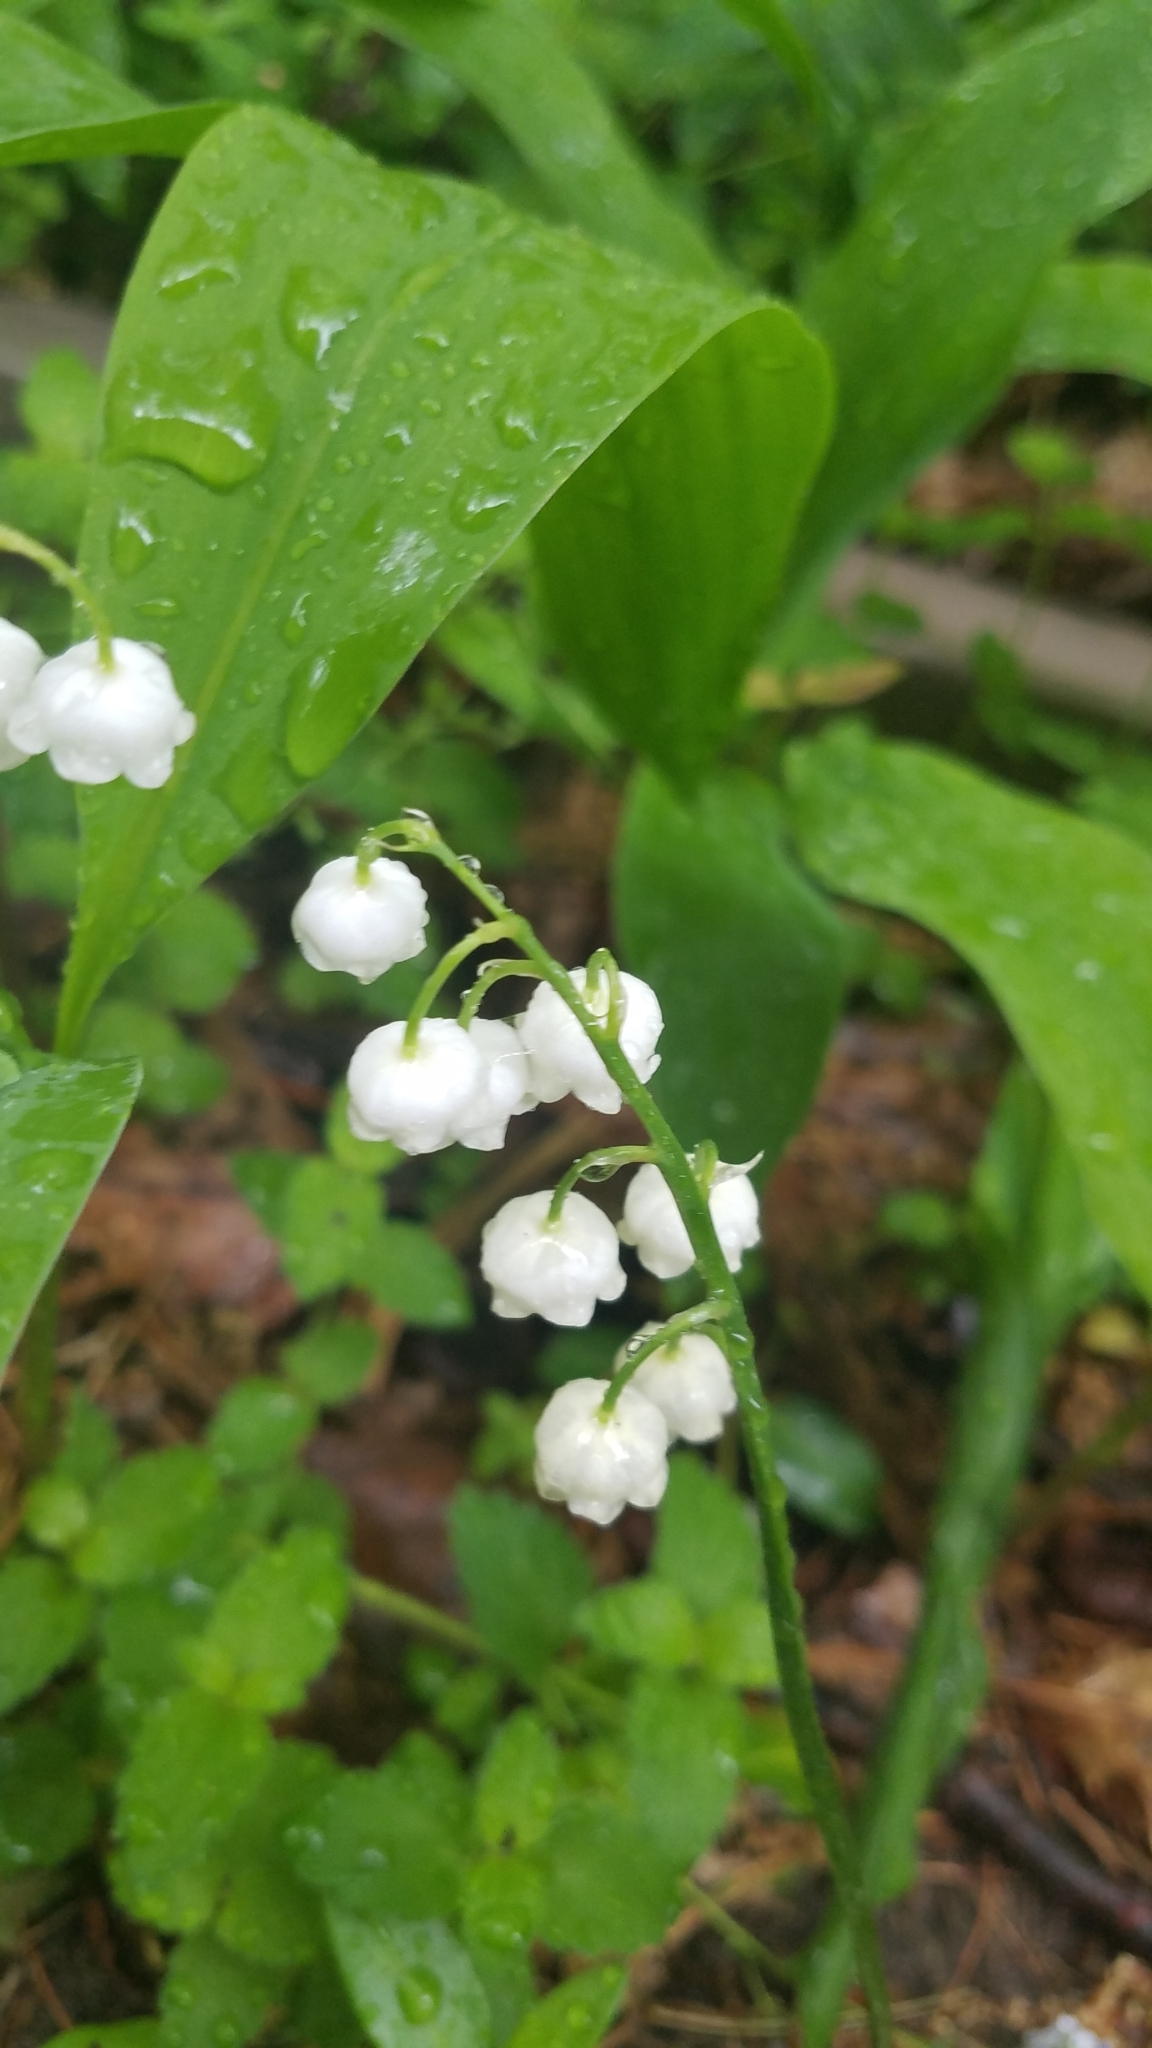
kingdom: Plantae
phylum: Tracheophyta
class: Liliopsida
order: Asparagales
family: Asparagaceae
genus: Convallaria
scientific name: Convallaria majalis
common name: Lily-of-the-valley
